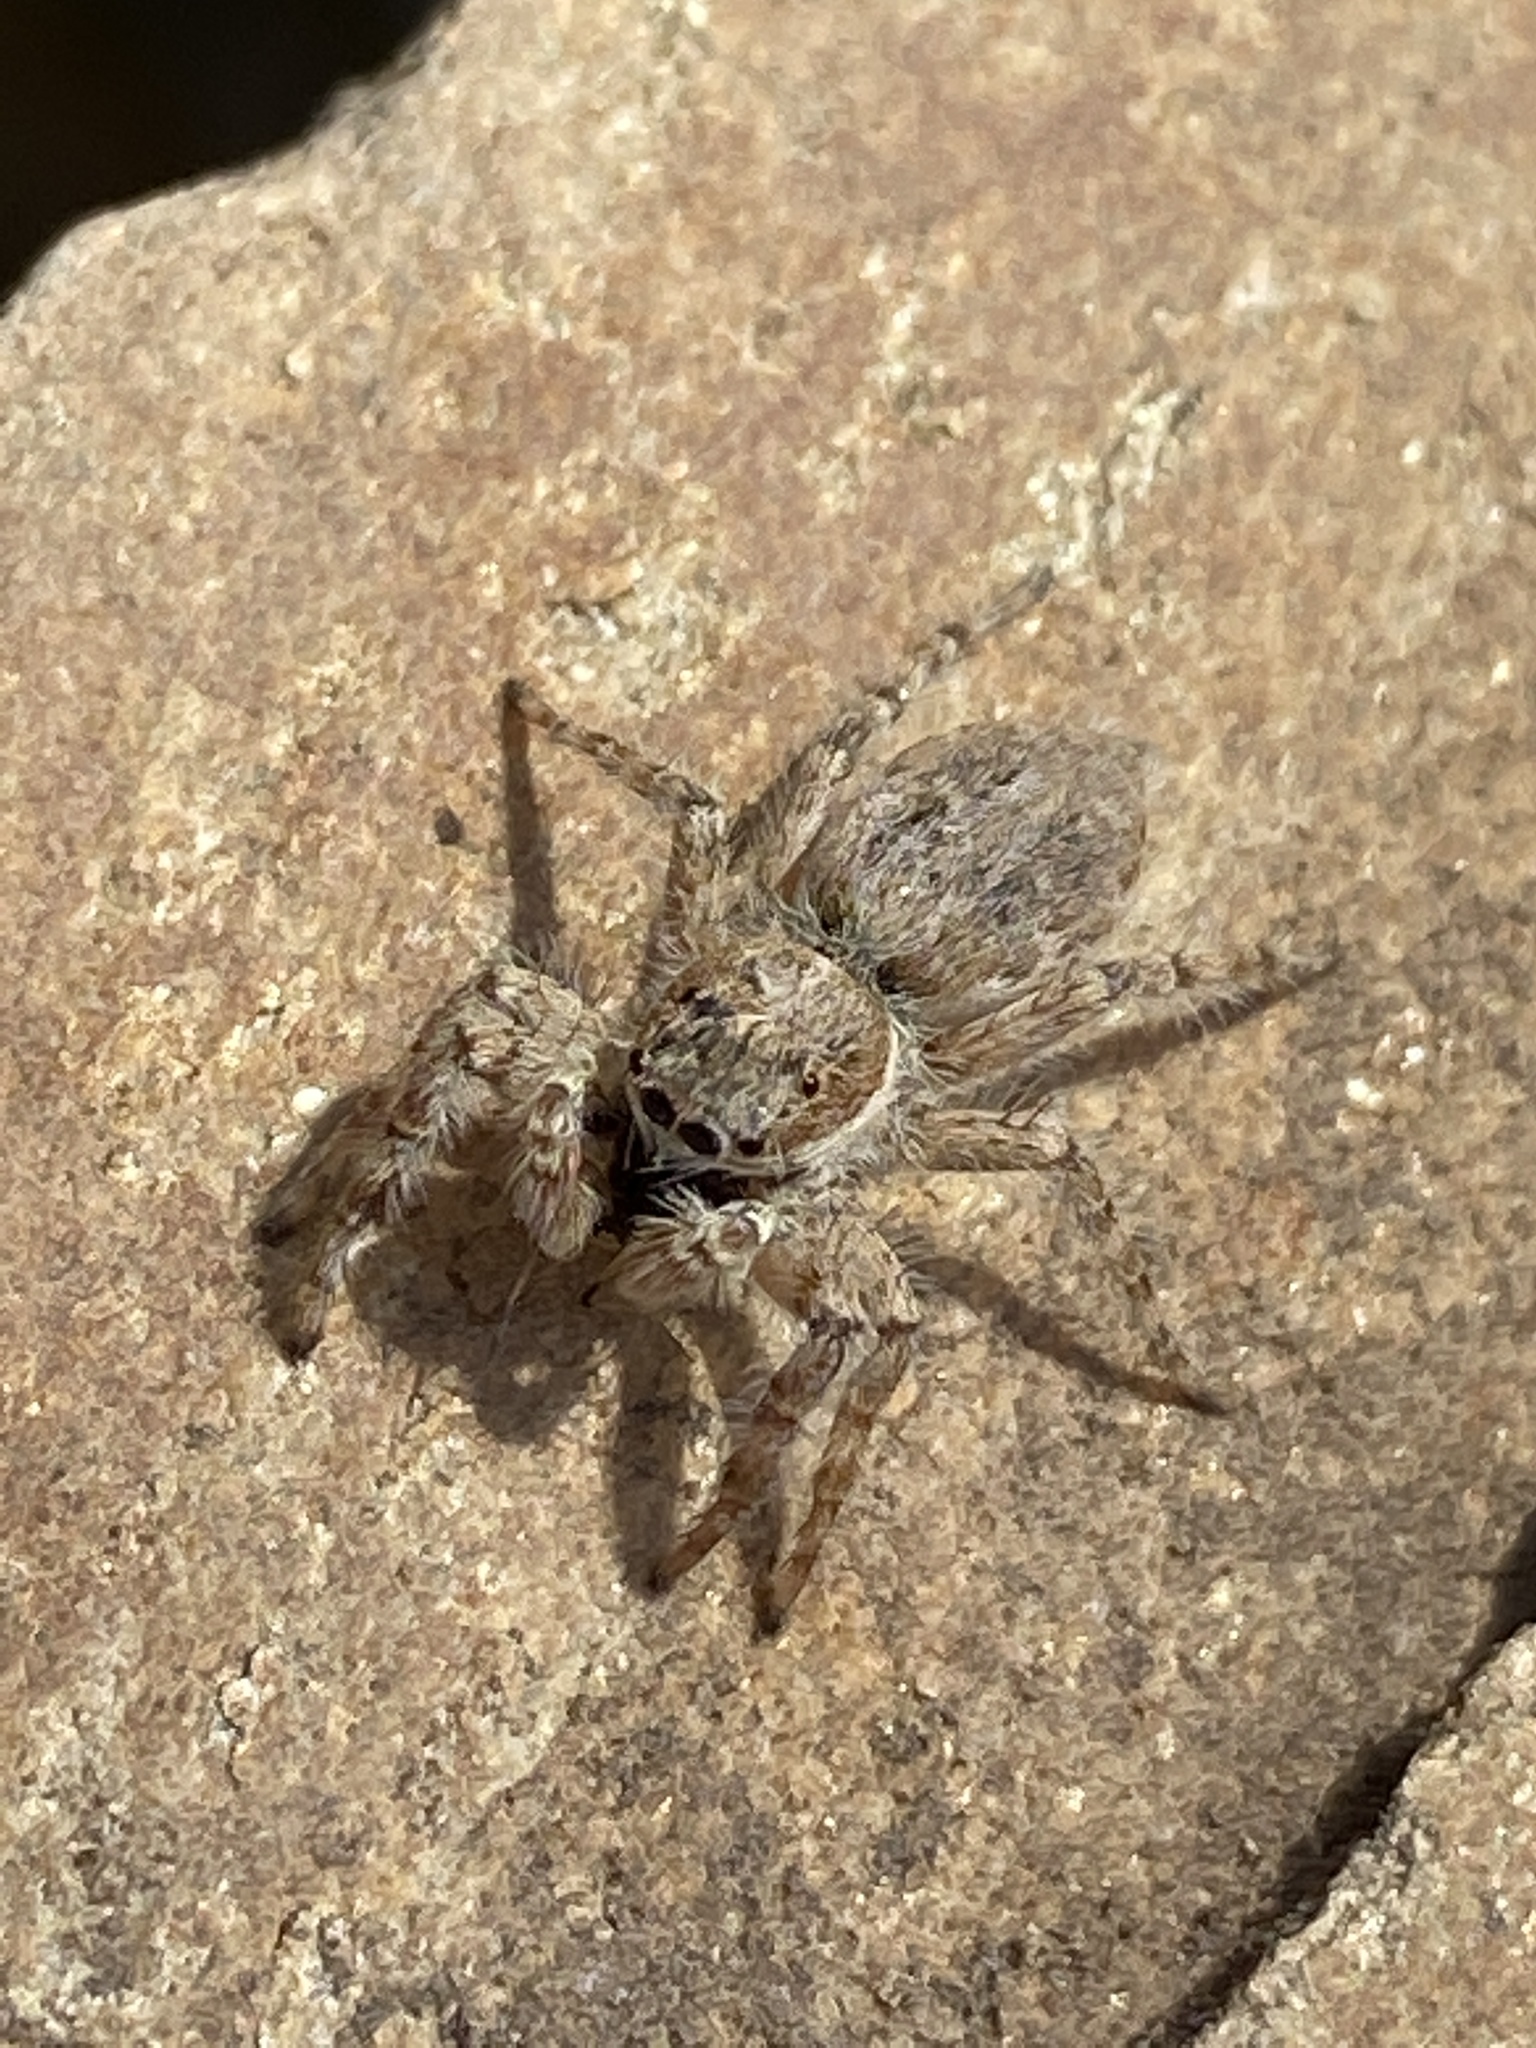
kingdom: Animalia
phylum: Arthropoda
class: Arachnida
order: Araneae
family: Salticidae
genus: Menemerus
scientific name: Menemerus fagei
